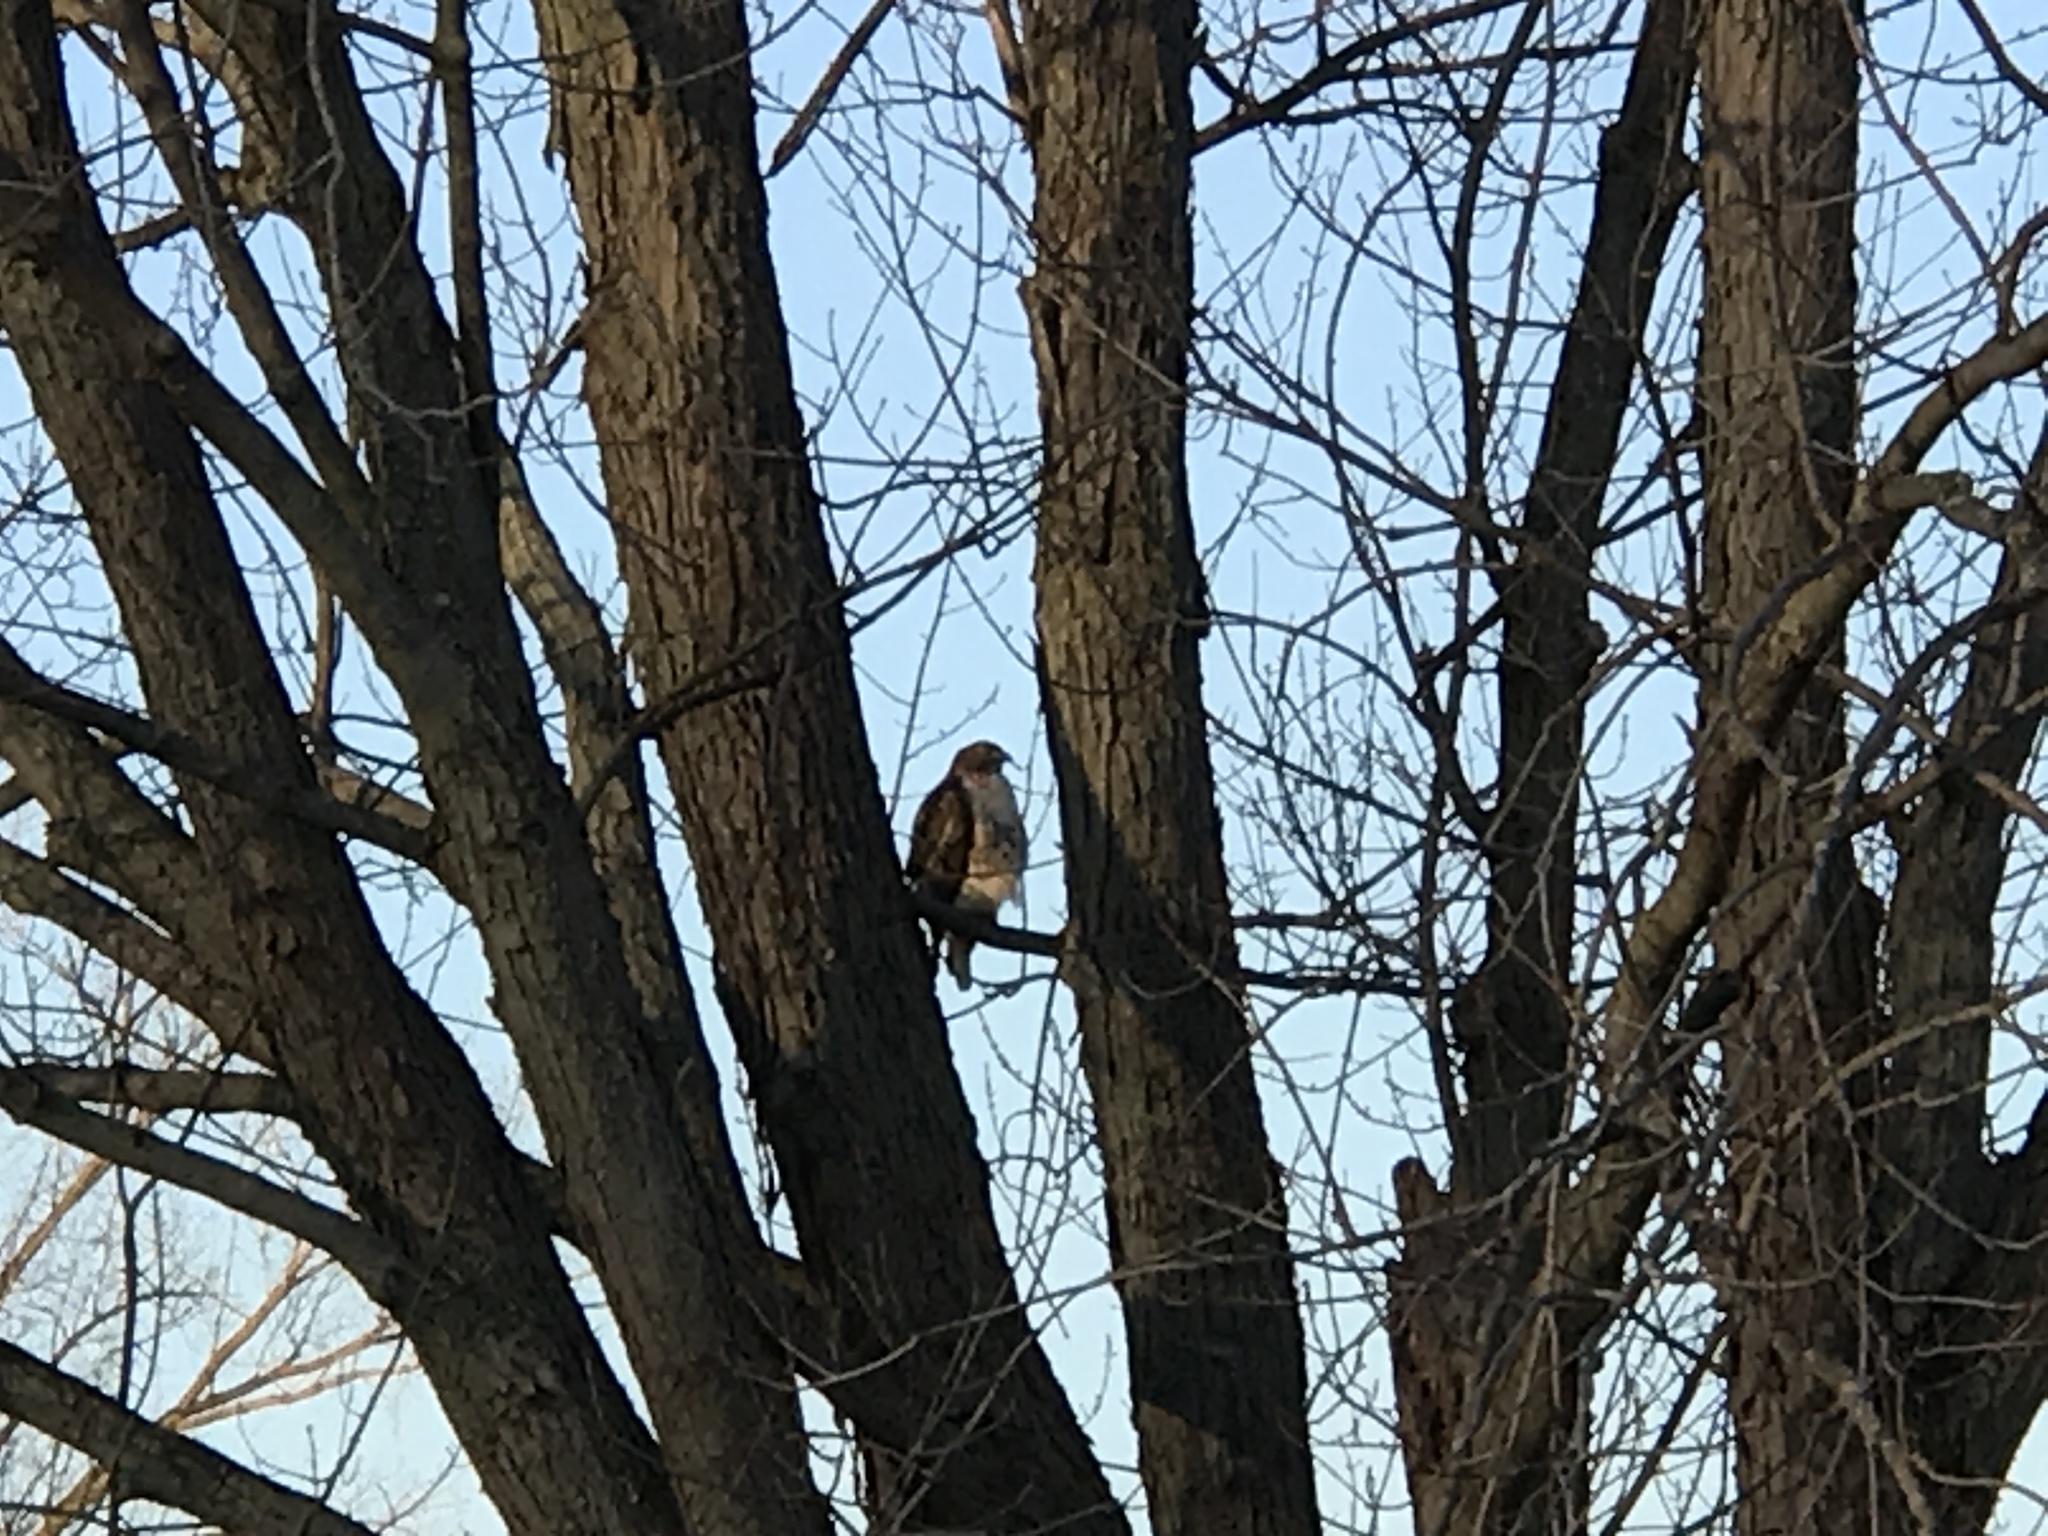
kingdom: Animalia
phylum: Chordata
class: Aves
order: Accipitriformes
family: Accipitridae
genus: Buteo
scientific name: Buteo jamaicensis
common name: Red-tailed hawk
